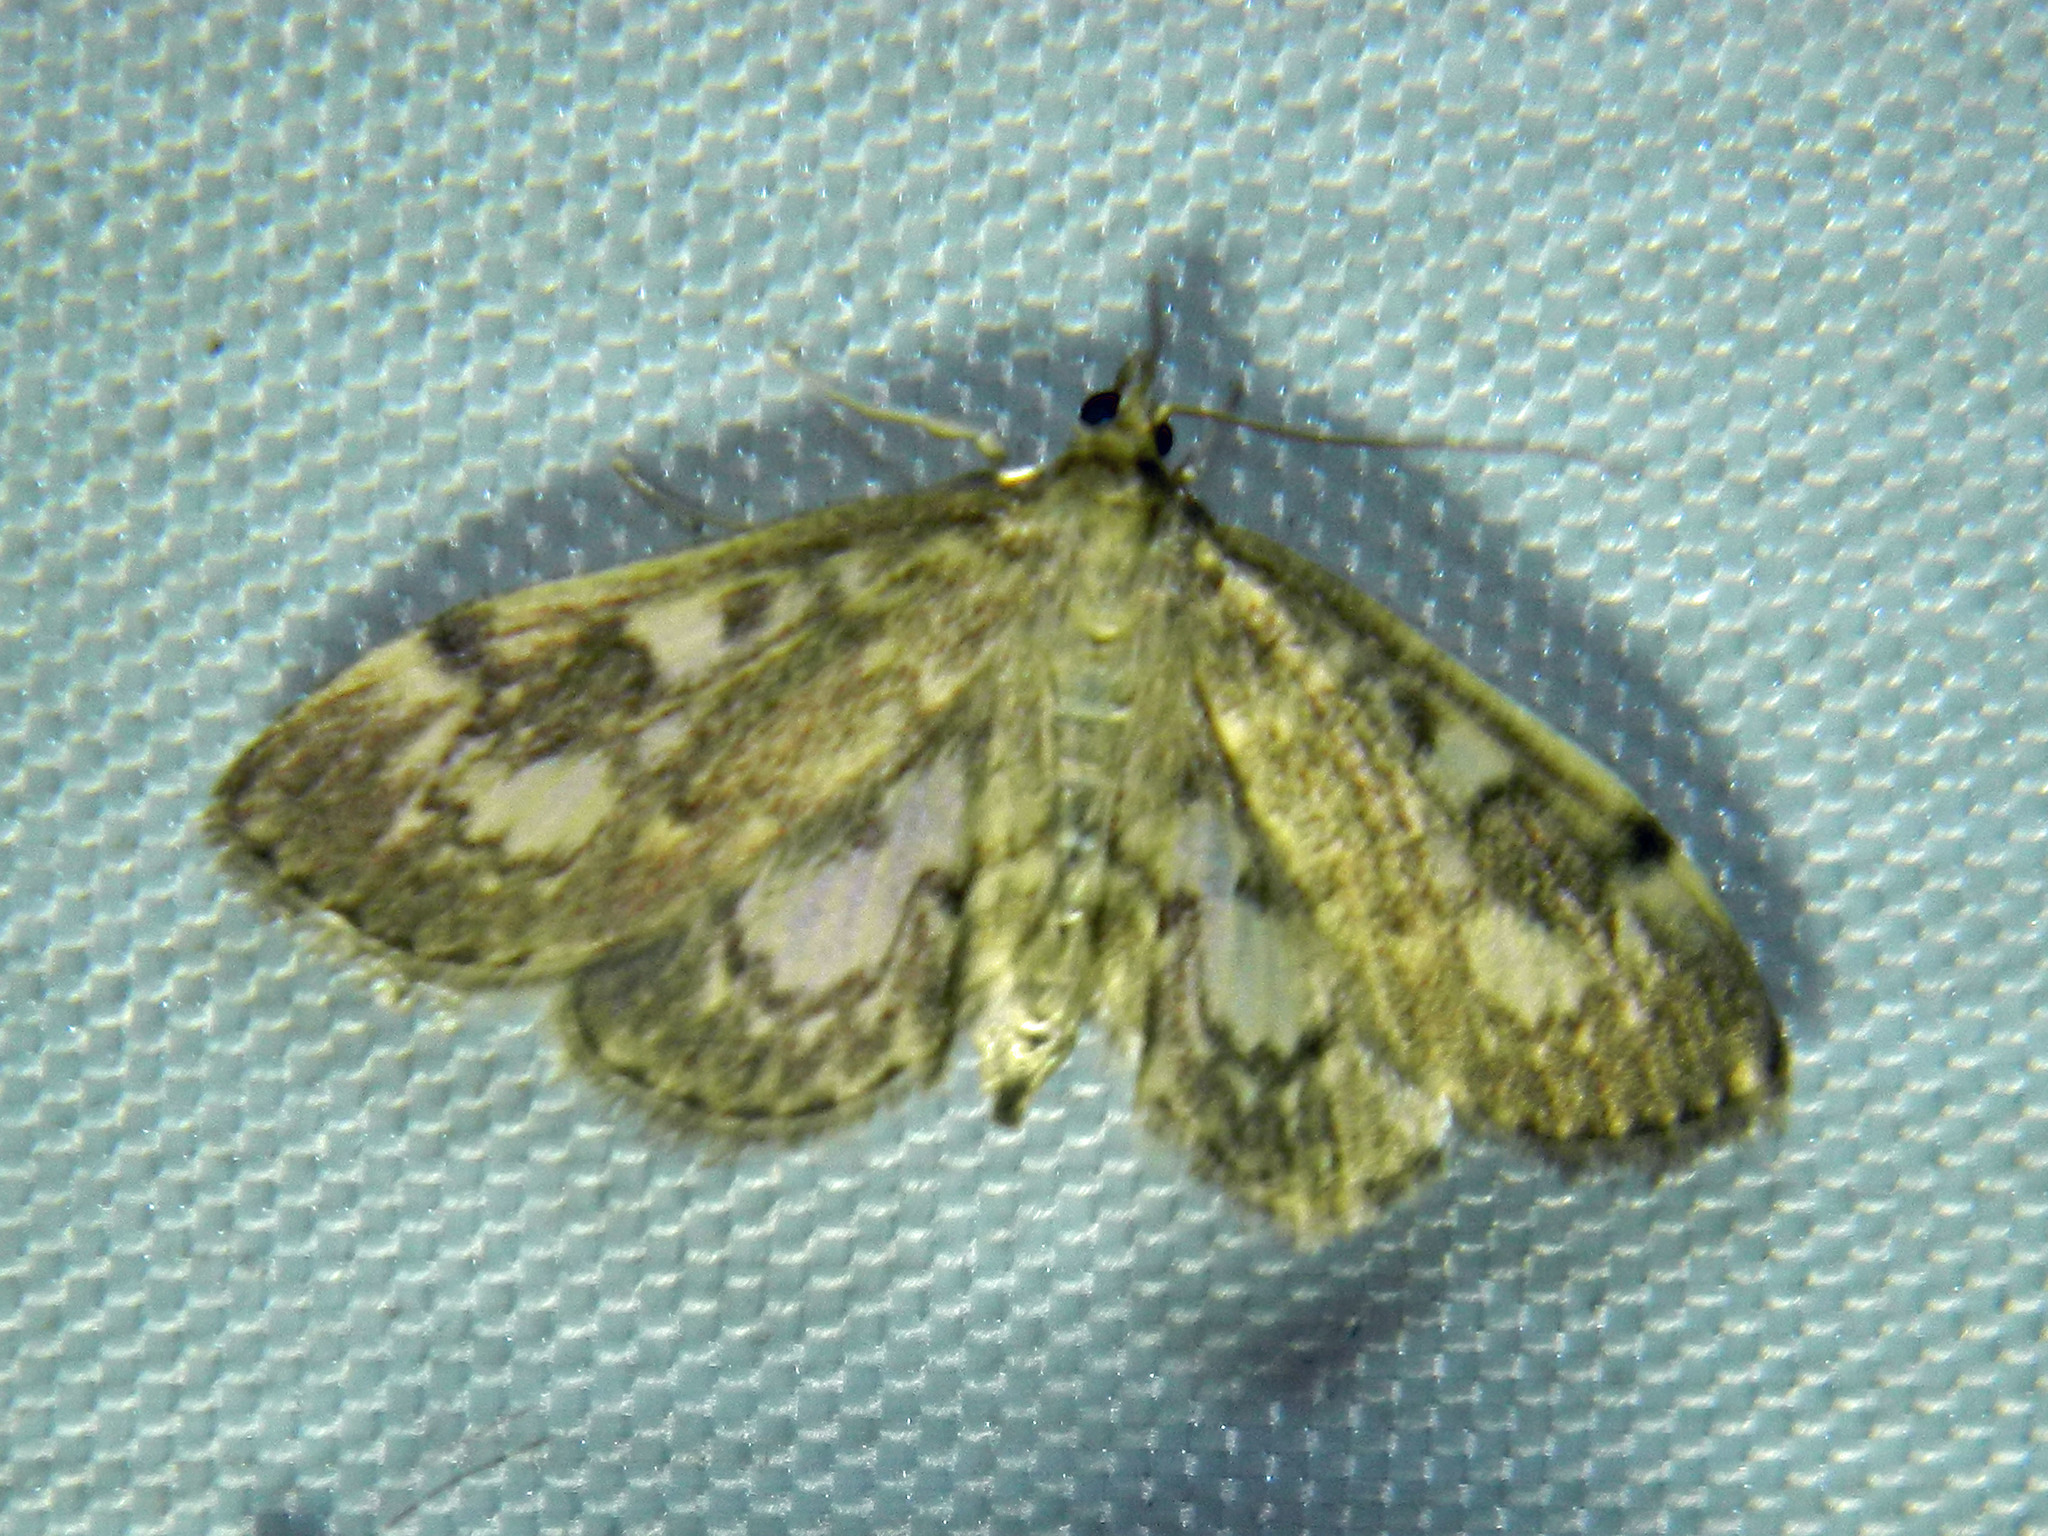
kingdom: Animalia
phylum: Arthropoda
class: Insecta
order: Lepidoptera
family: Crambidae
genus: Anania
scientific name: Anania
